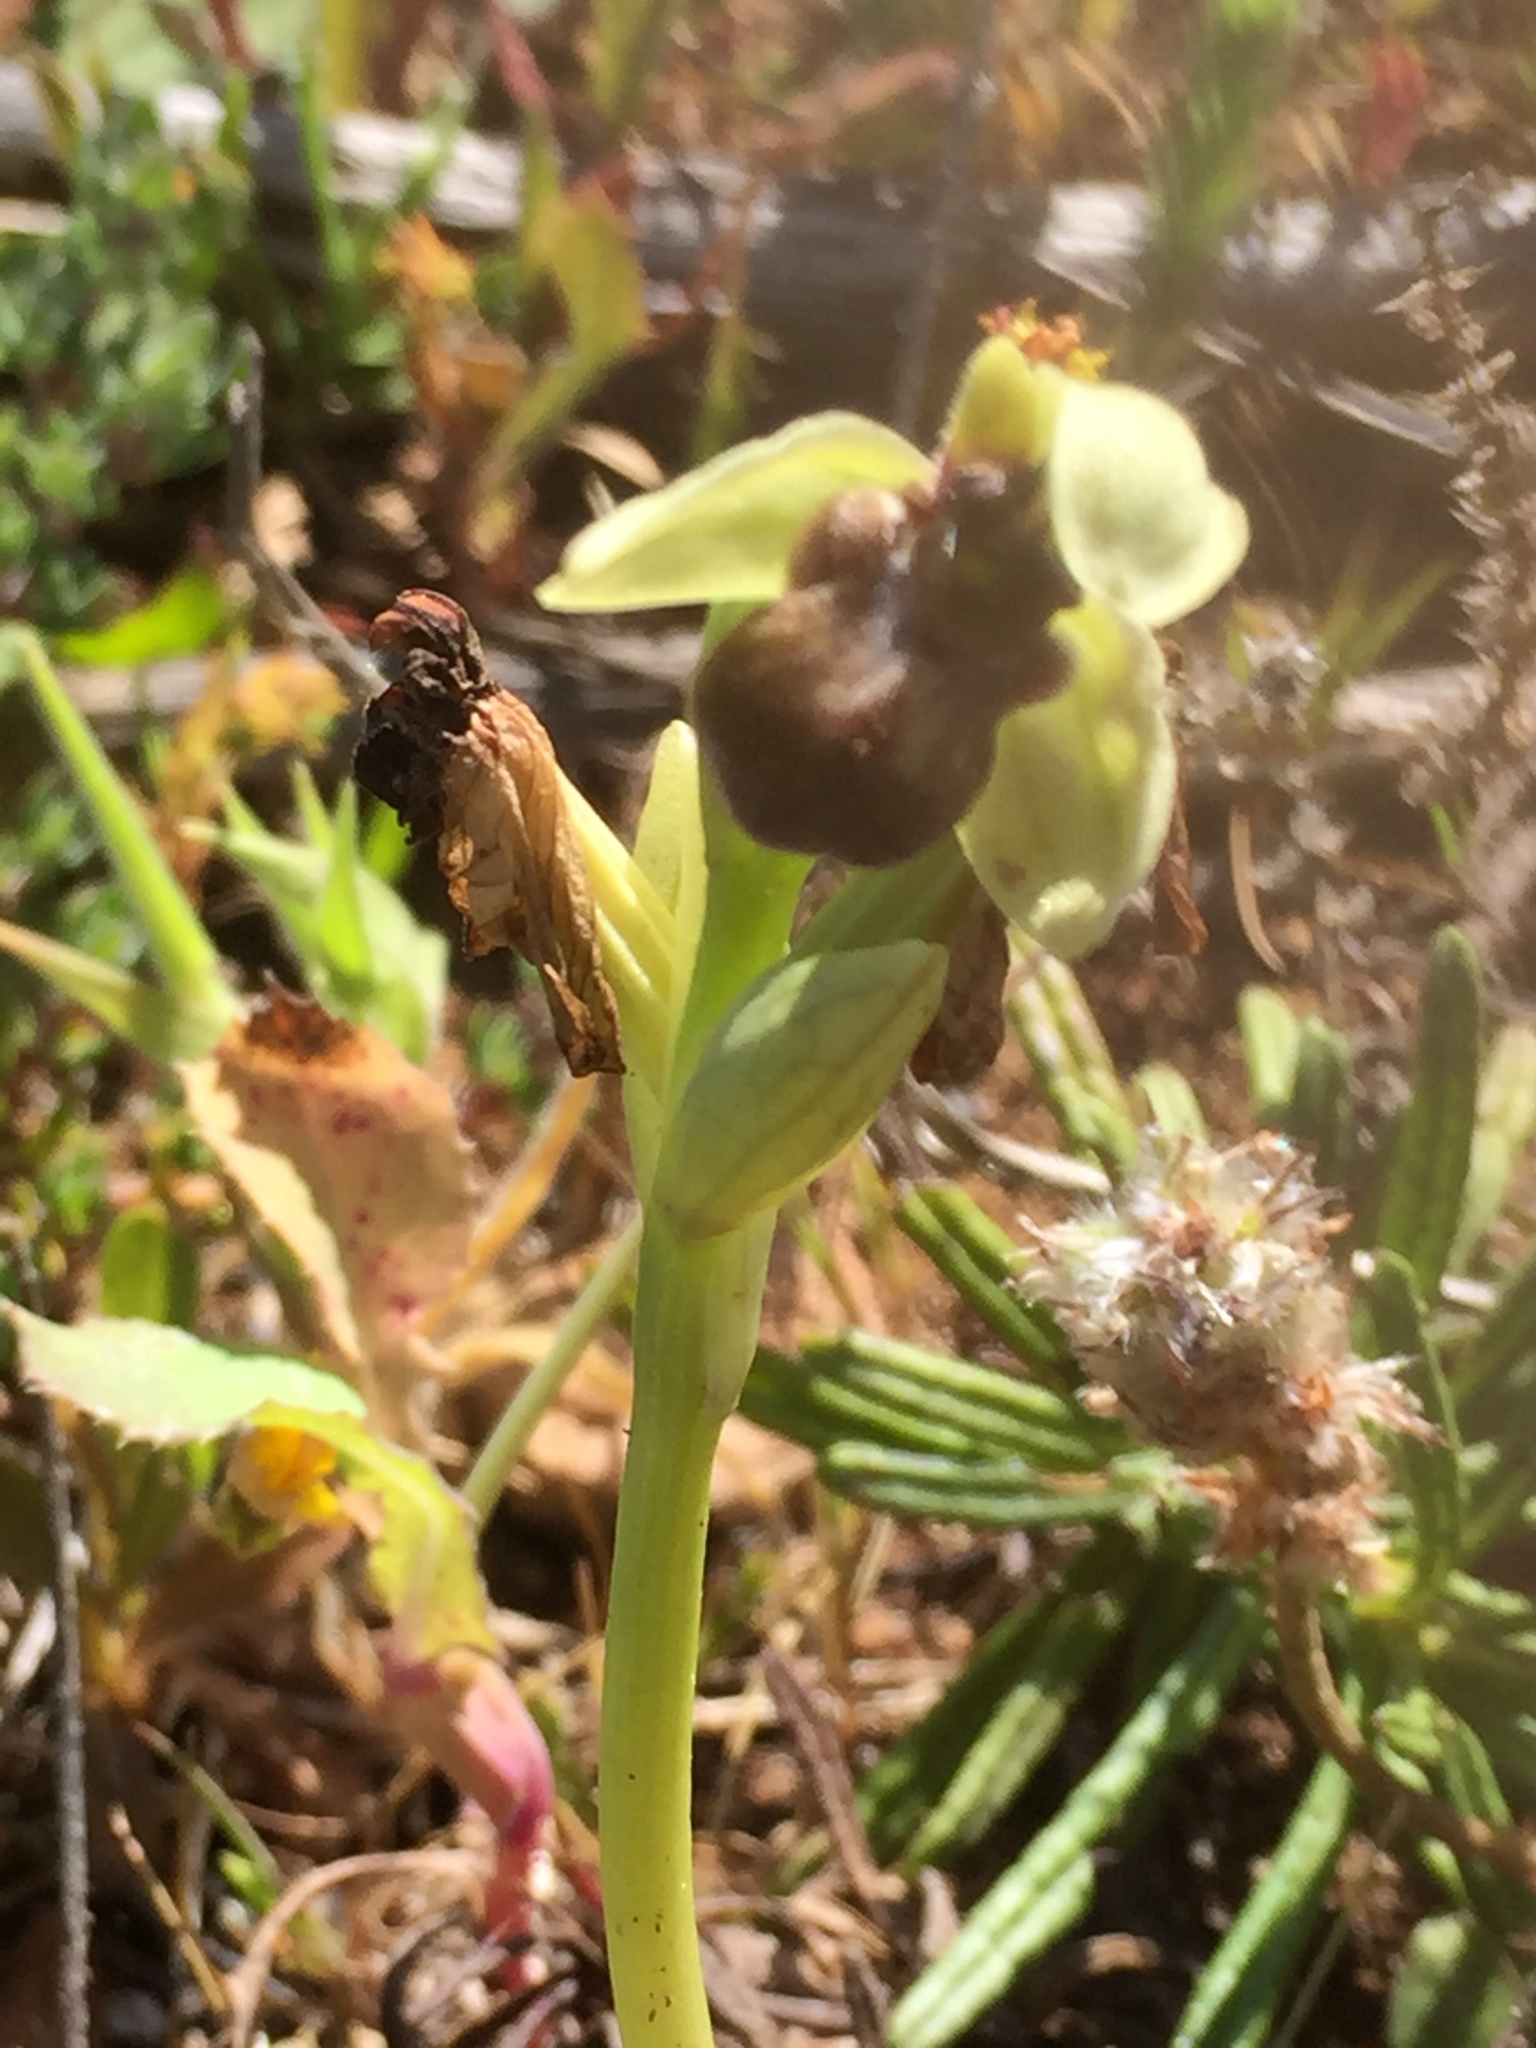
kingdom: Plantae
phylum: Tracheophyta
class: Liliopsida
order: Asparagales
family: Orchidaceae
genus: Ophrys
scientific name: Ophrys bombyliflora
